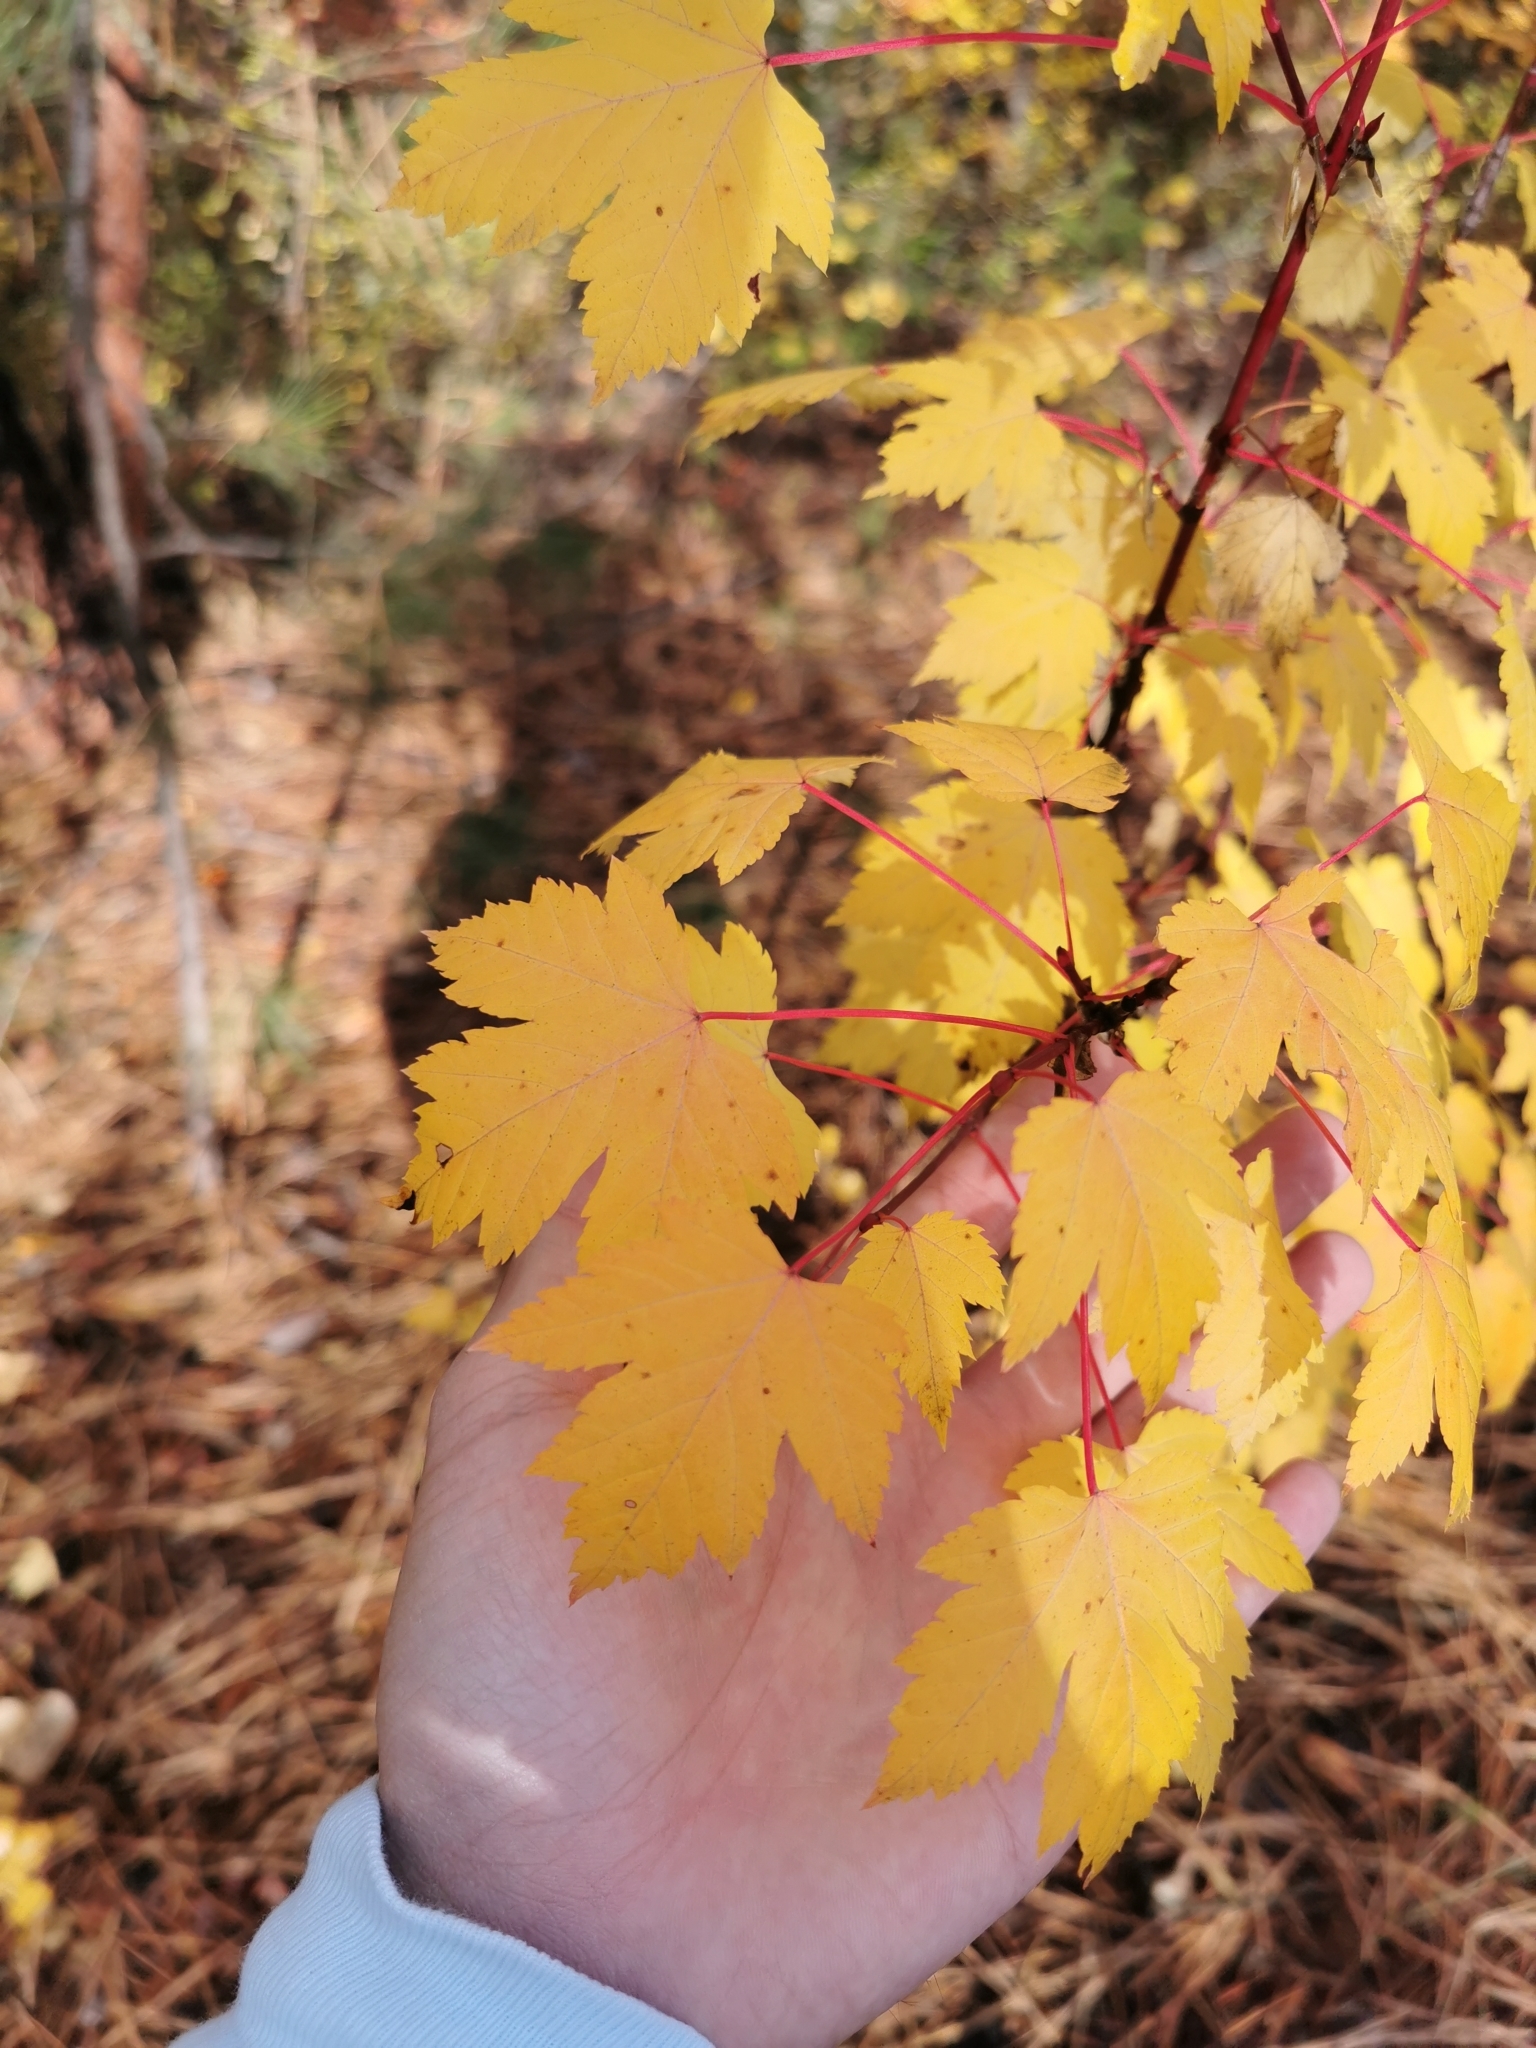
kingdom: Plantae
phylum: Tracheophyta
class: Magnoliopsida
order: Sapindales
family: Sapindaceae
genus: Acer
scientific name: Acer glabrum
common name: Rocky mountain maple
